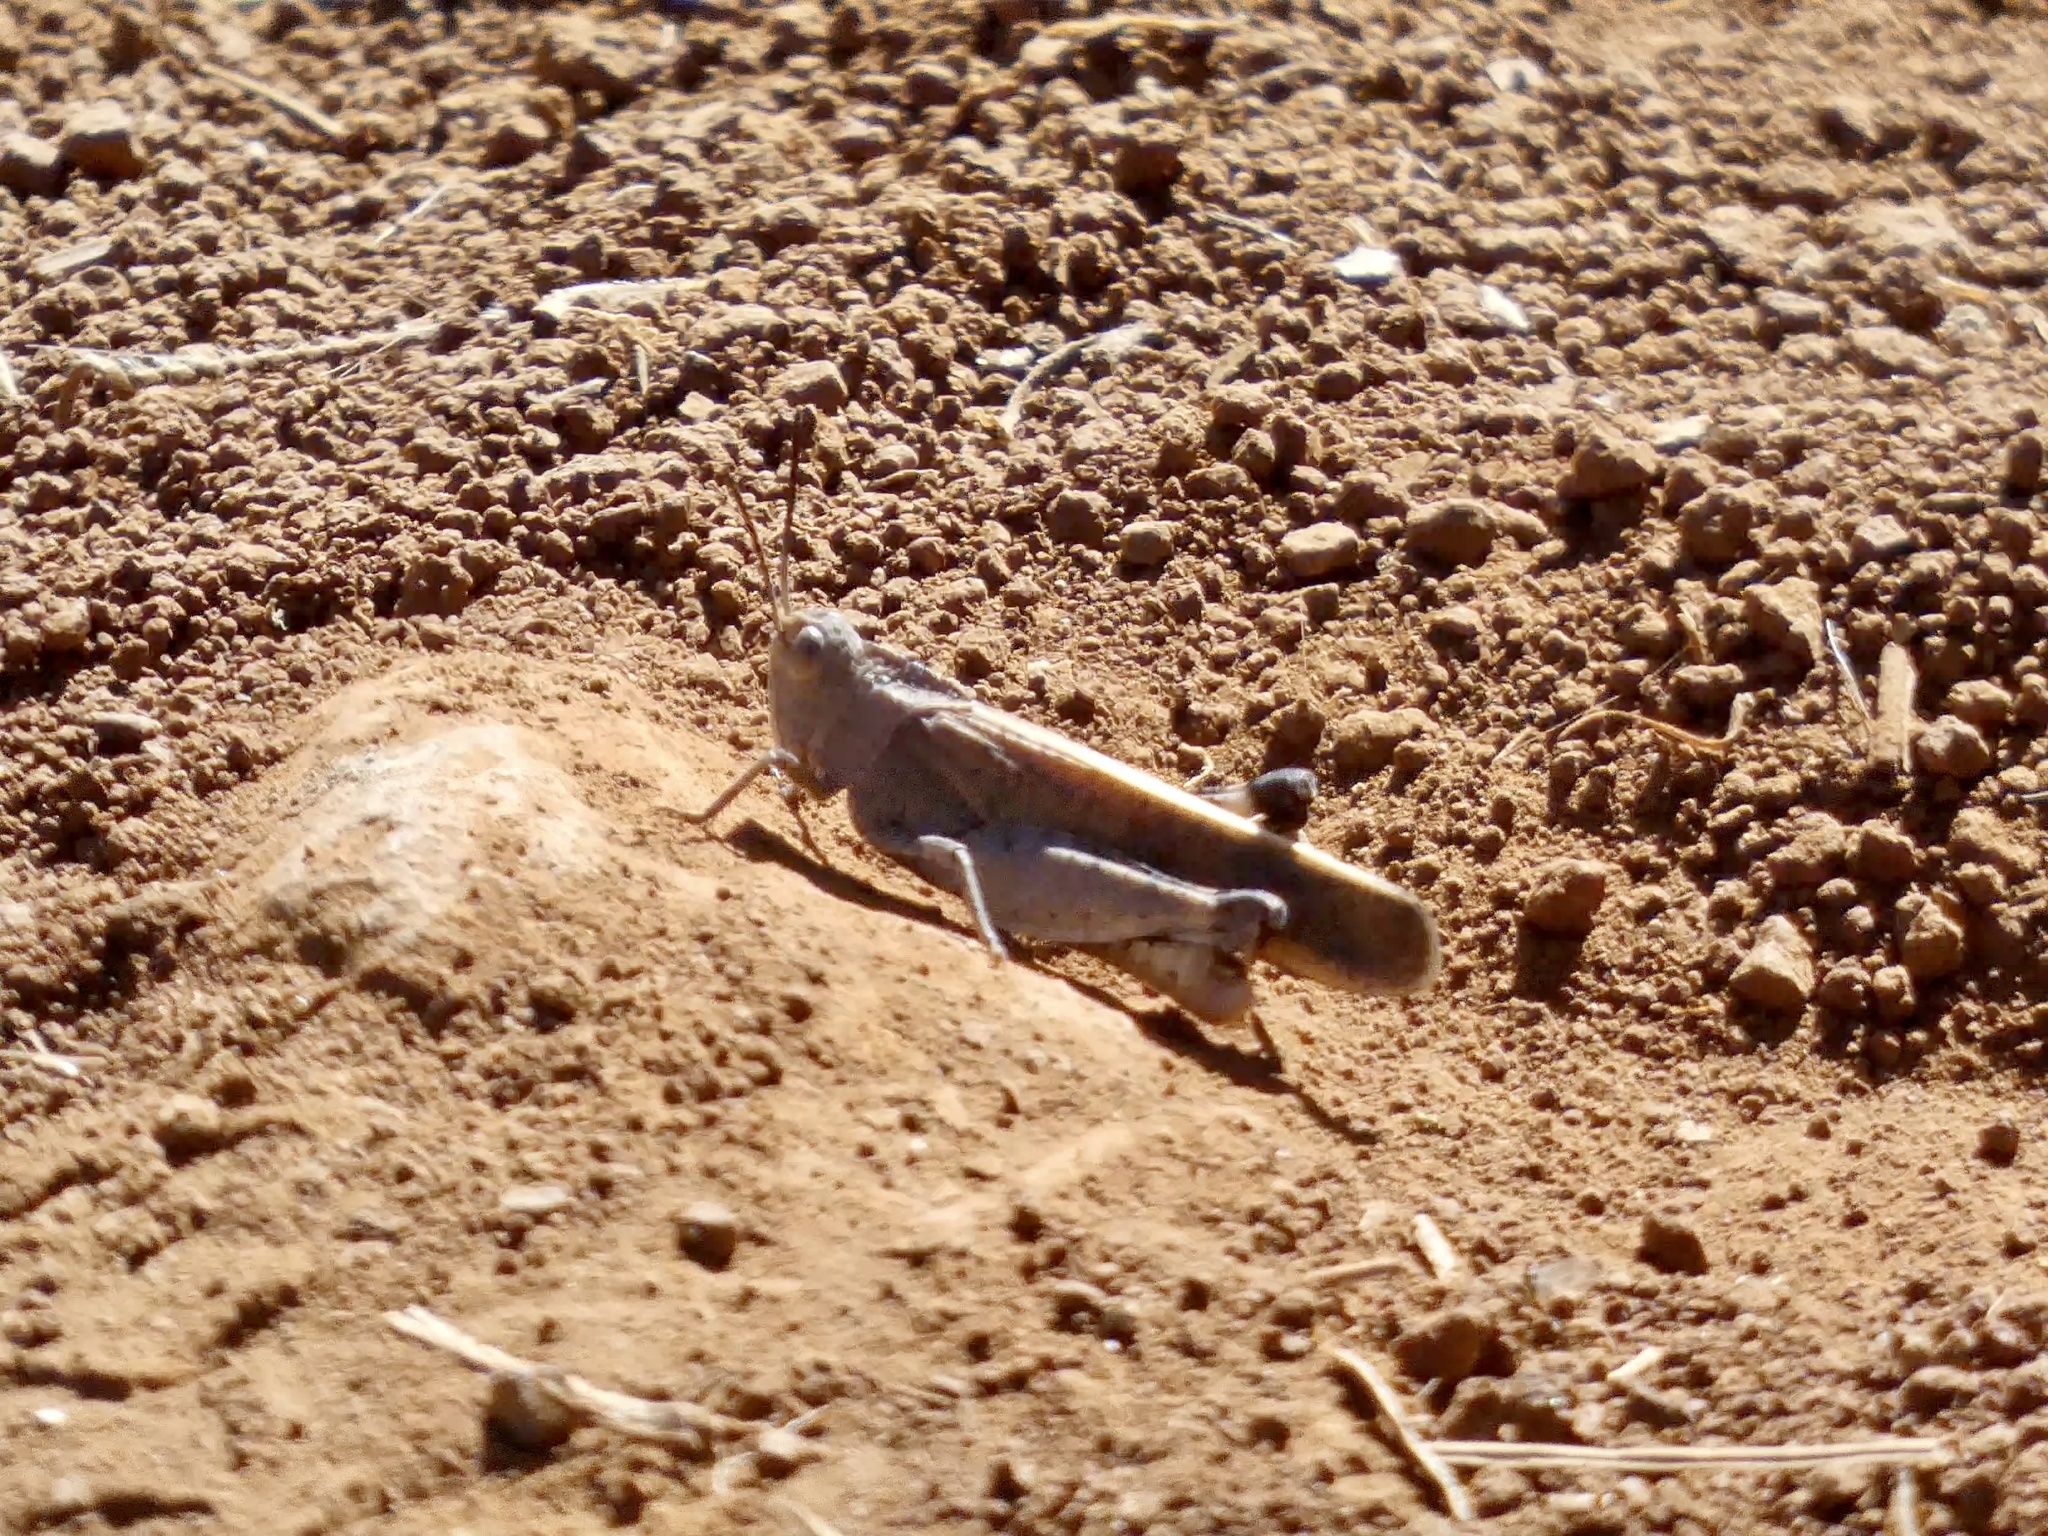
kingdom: Animalia
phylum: Arthropoda
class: Insecta
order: Orthoptera
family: Acrididae
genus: Arphia
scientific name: Arphia ramona
